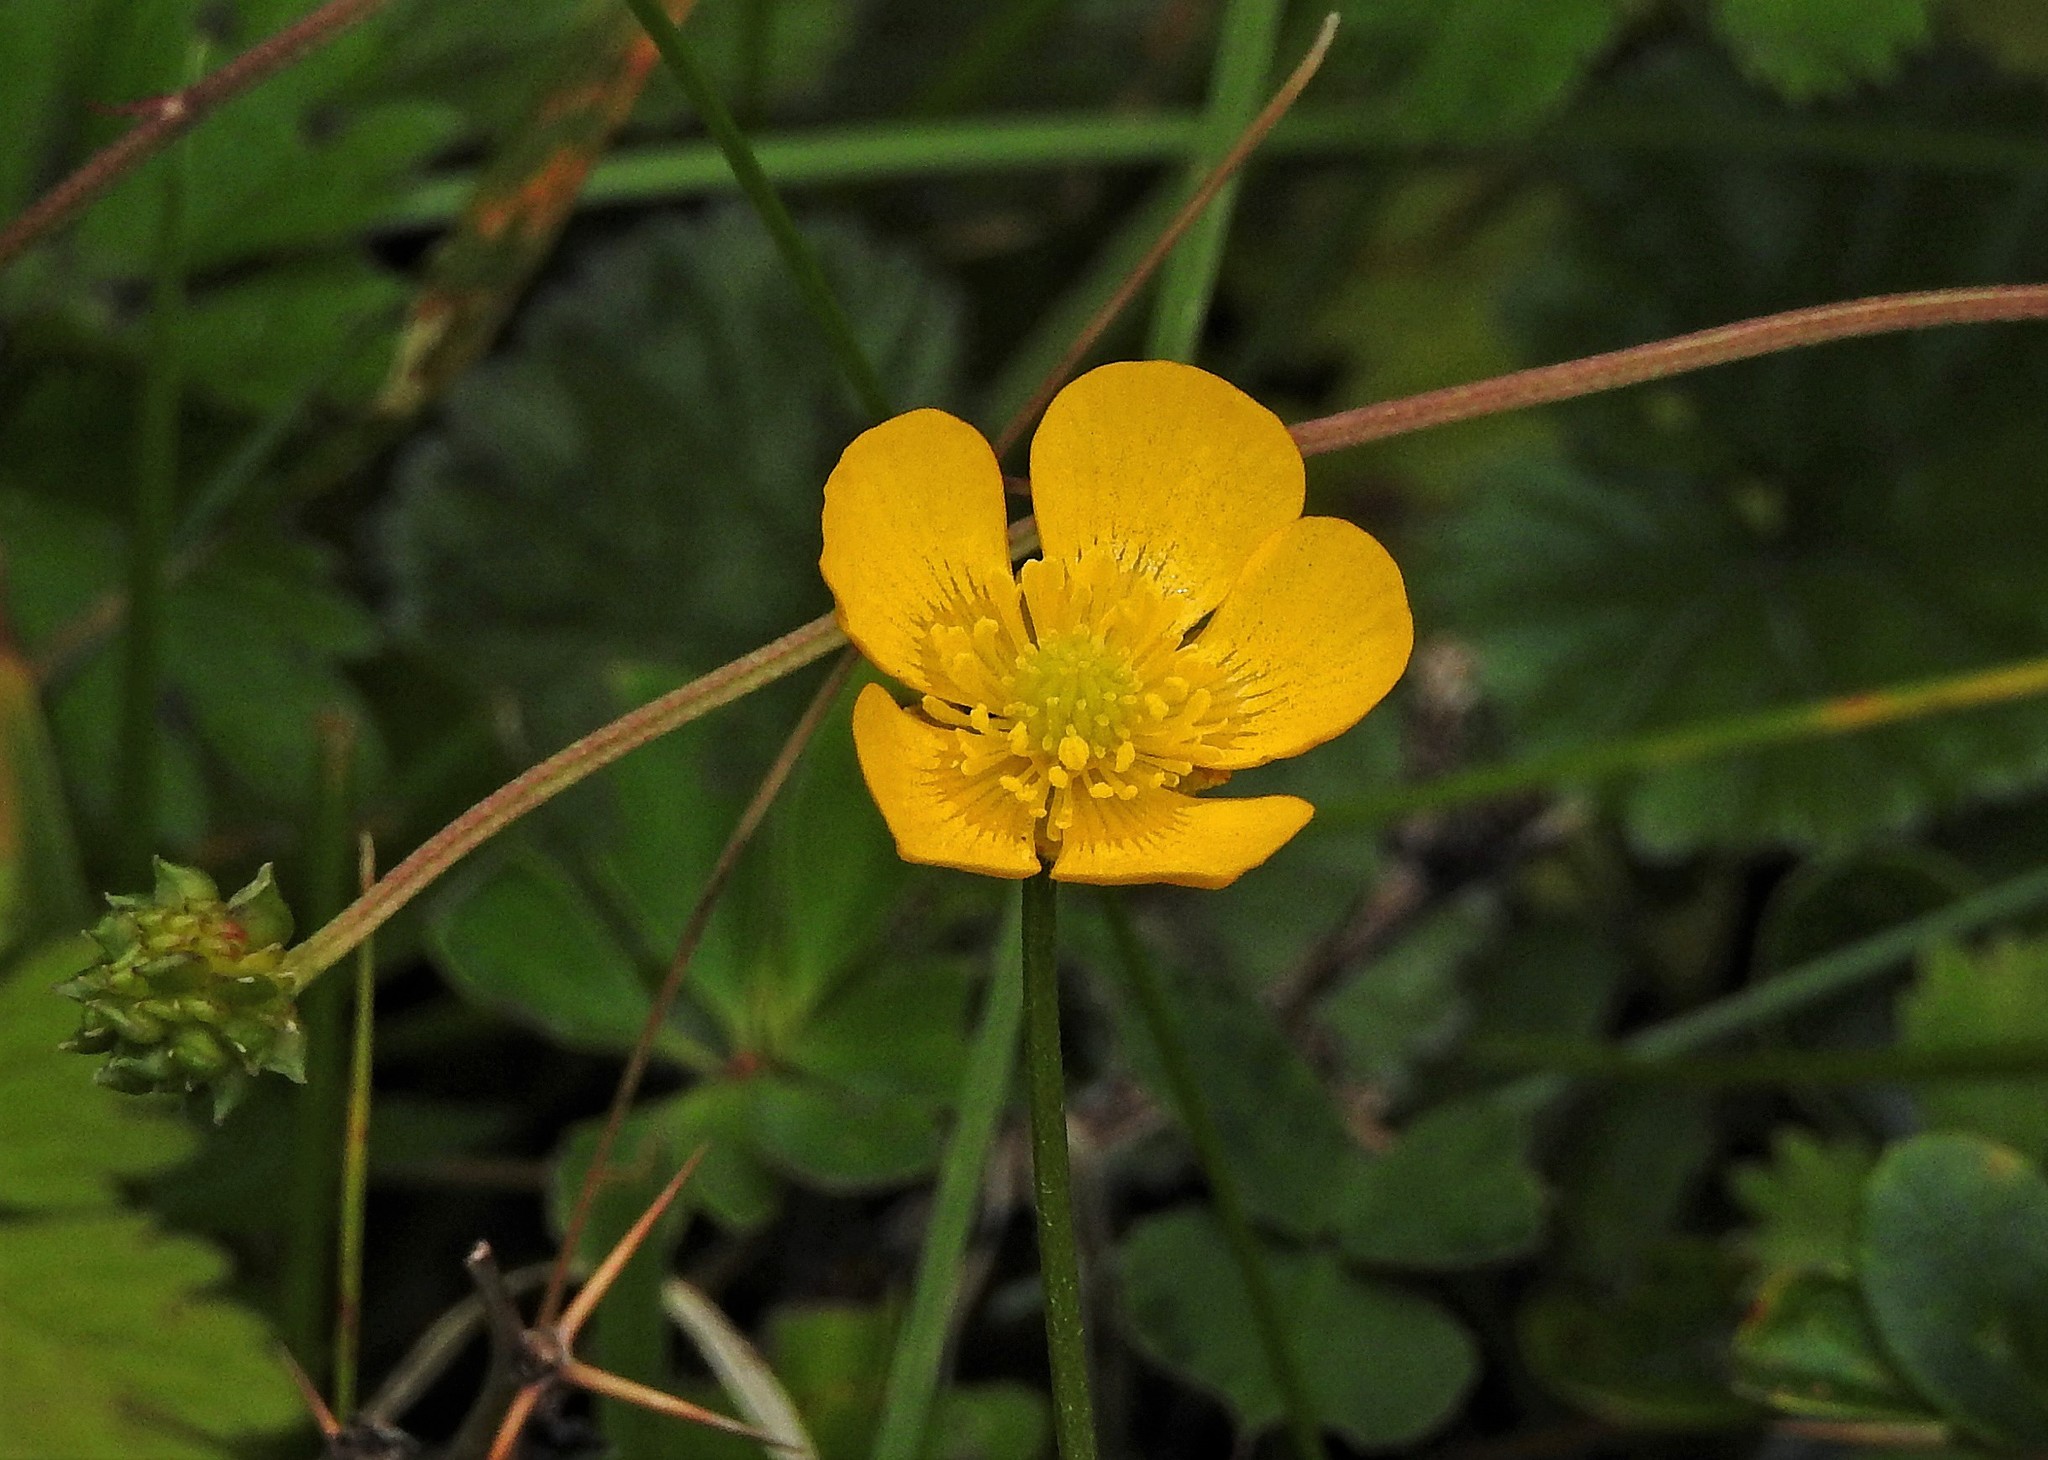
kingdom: Plantae
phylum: Tracheophyta
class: Magnoliopsida
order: Ranunculales
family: Ranunculaceae
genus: Ranunculus
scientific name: Ranunculus repens
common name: Creeping buttercup
